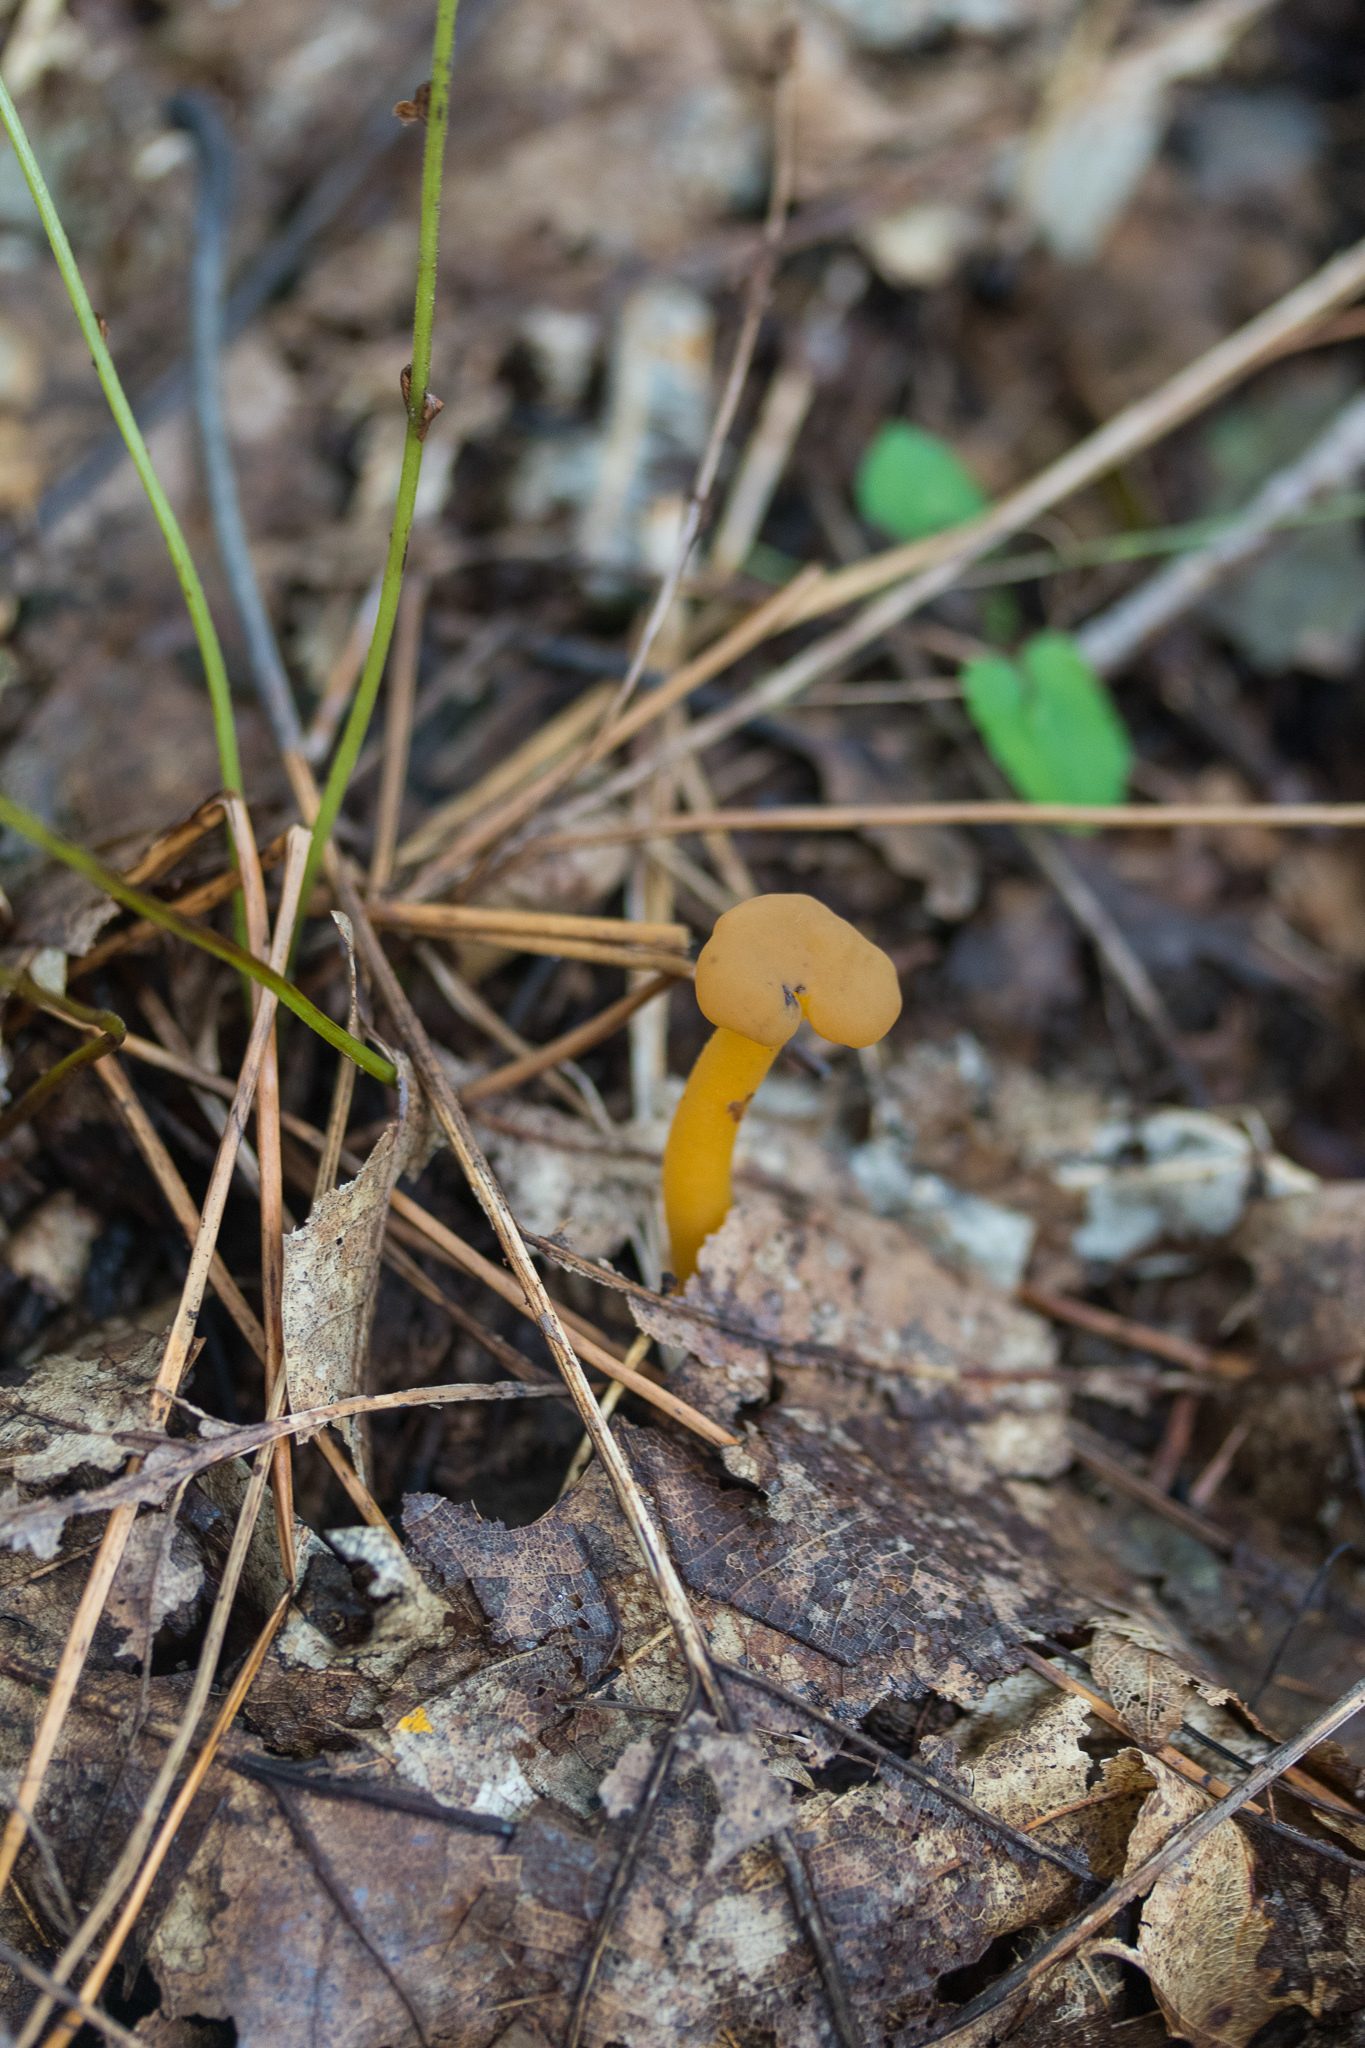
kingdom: Fungi
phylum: Ascomycota
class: Leotiomycetes
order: Leotiales
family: Leotiaceae
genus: Leotia
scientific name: Leotia lubrica
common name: Jellybaby
